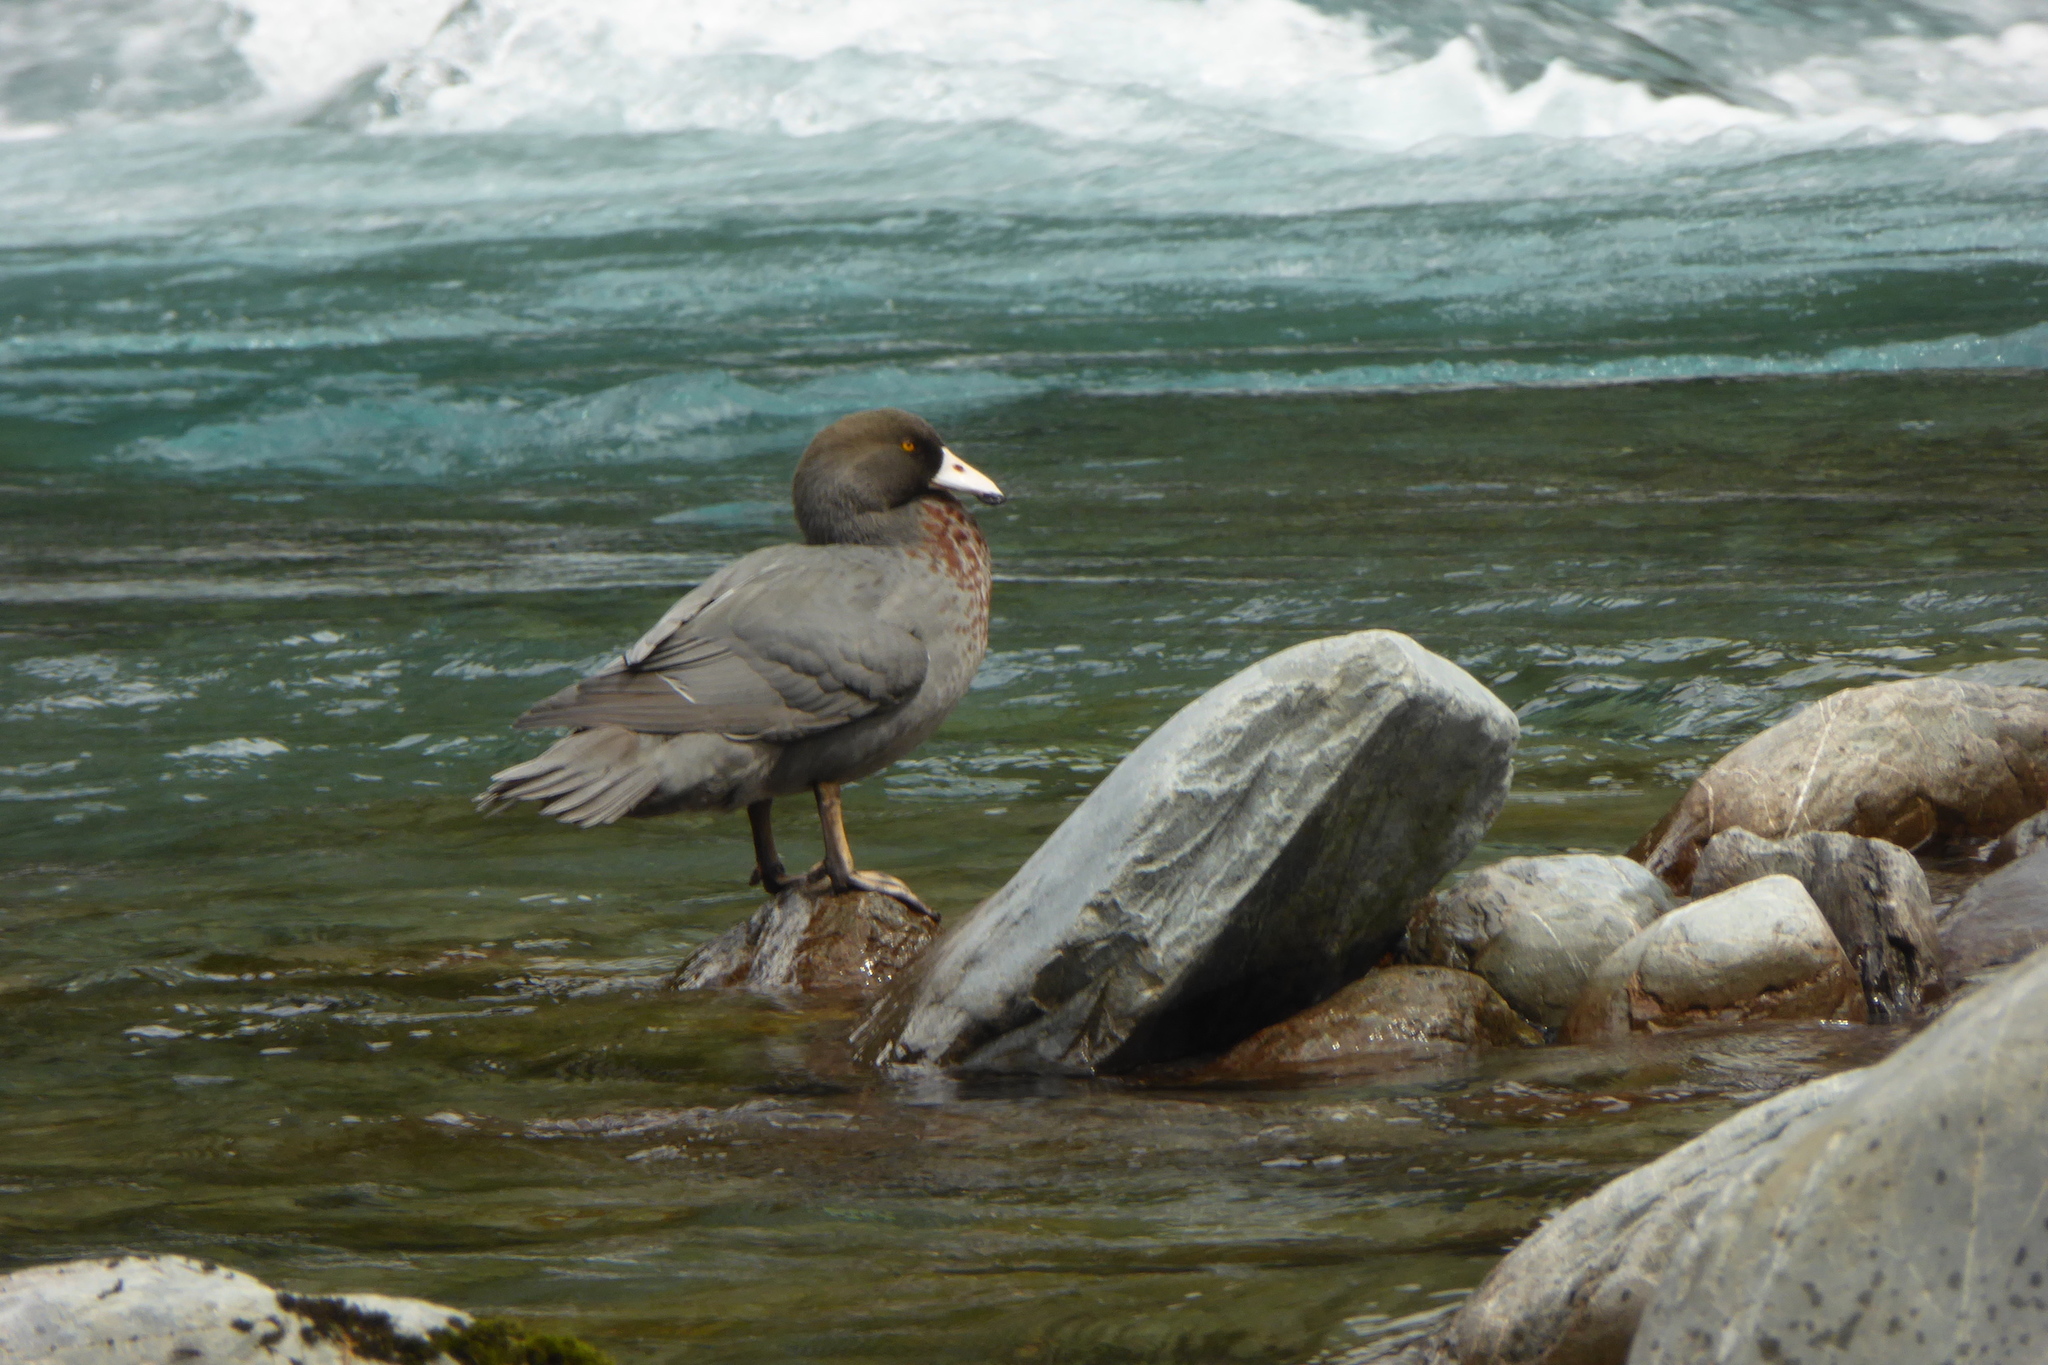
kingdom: Animalia
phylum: Chordata
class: Aves
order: Anseriformes
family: Anatidae
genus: Hymenolaimus
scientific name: Hymenolaimus malacorhynchos
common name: Blue duck
